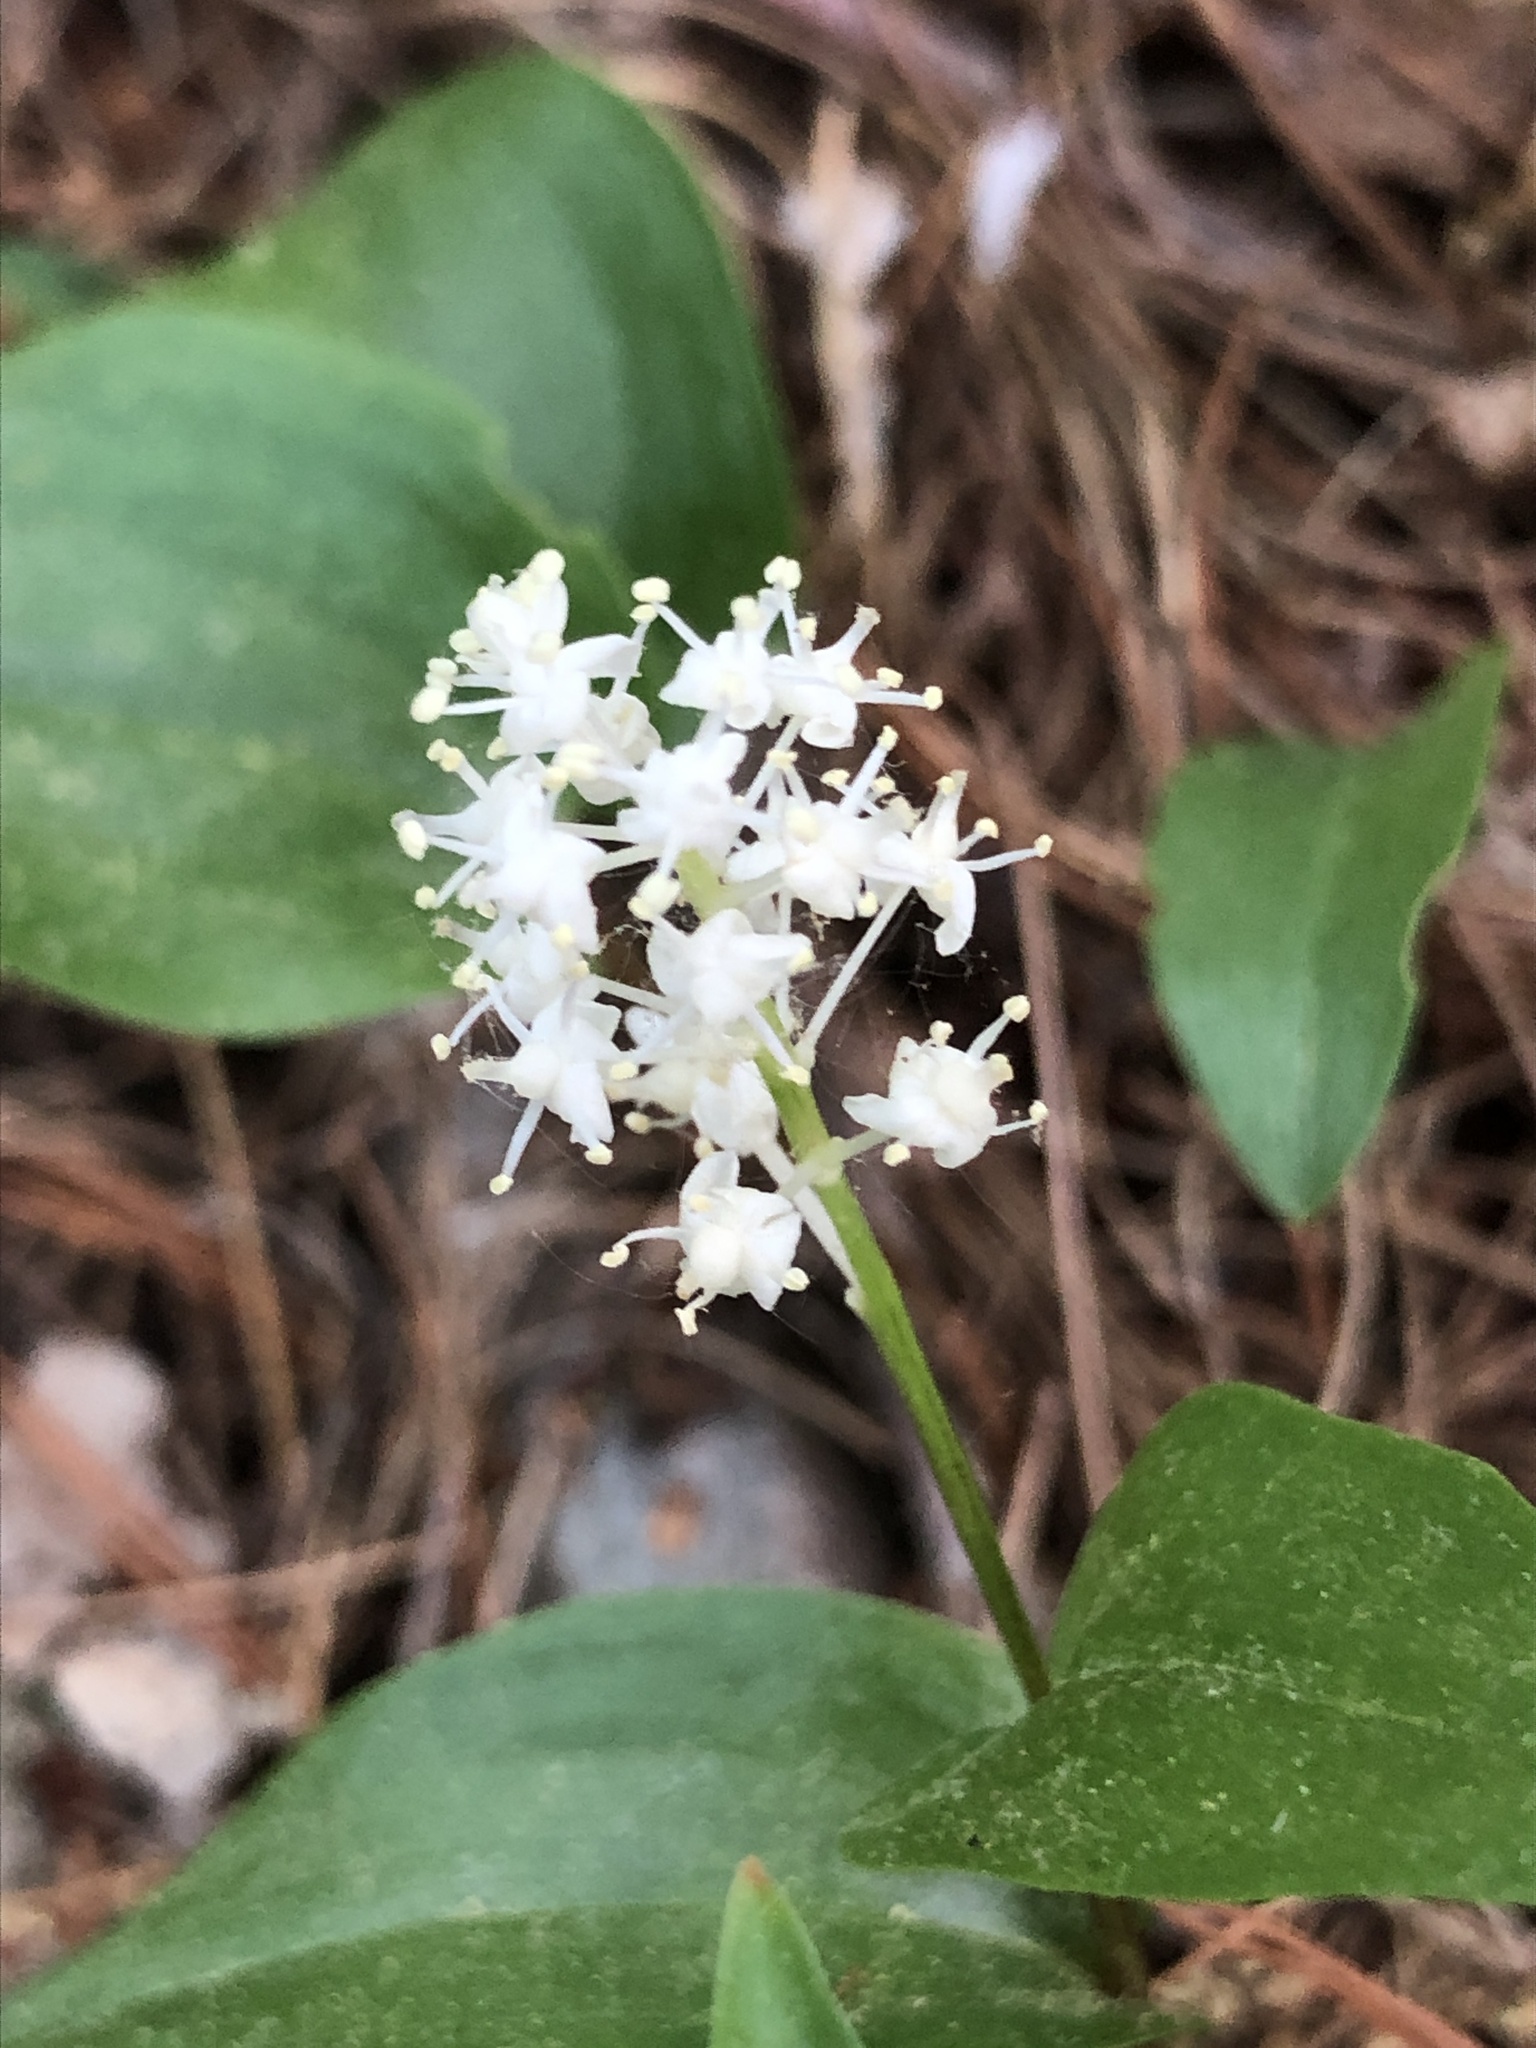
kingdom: Plantae
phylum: Tracheophyta
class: Liliopsida
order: Asparagales
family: Asparagaceae
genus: Maianthemum
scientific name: Maianthemum canadense
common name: False lily-of-the-valley
